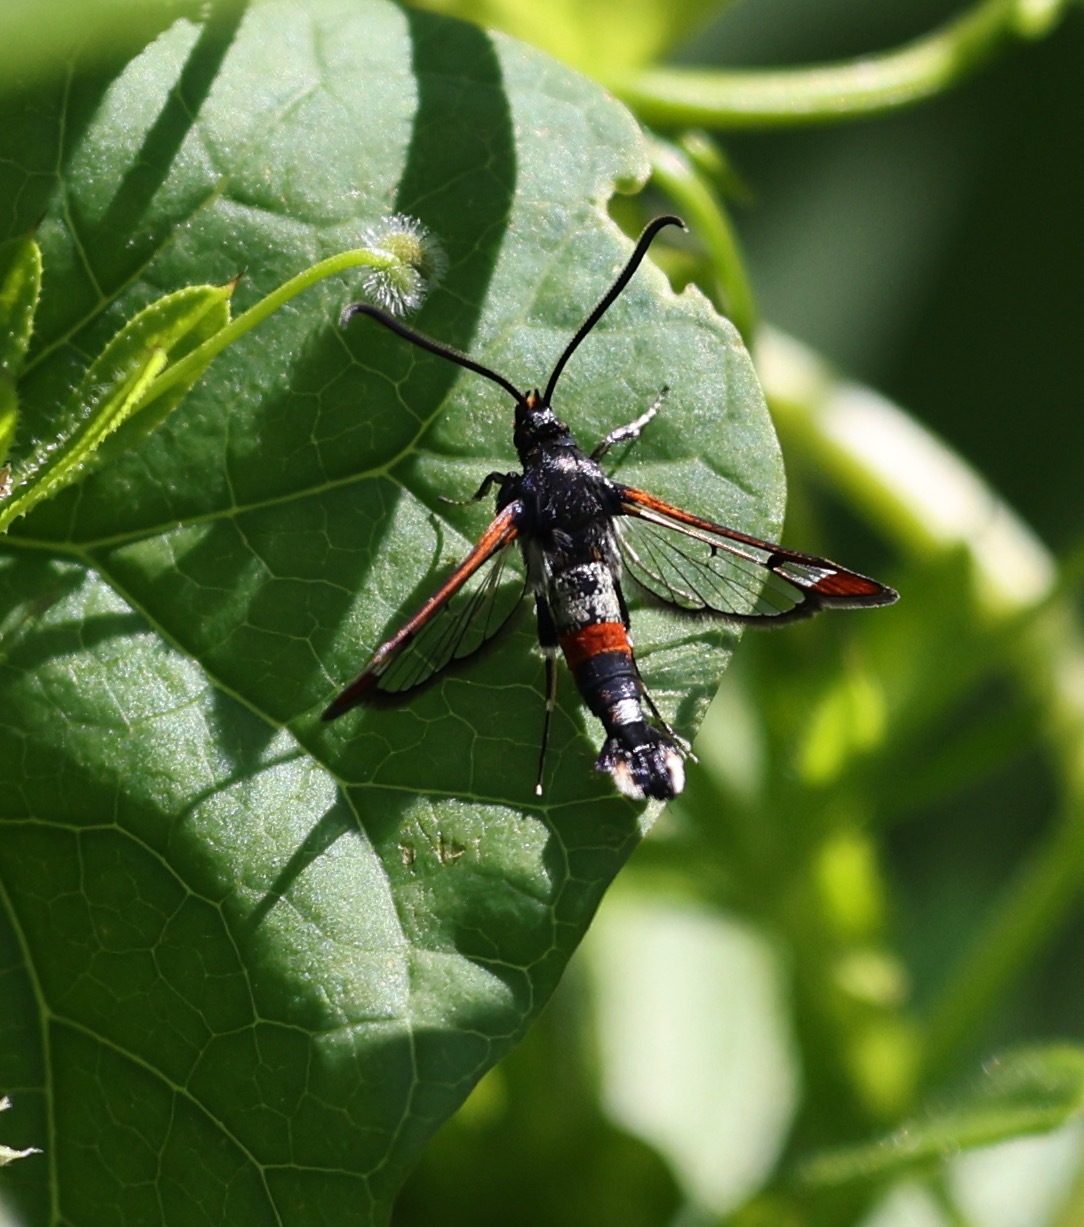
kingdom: Animalia
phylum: Arthropoda
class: Insecta
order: Lepidoptera
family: Sesiidae
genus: Synanthedon
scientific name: Synanthedon formicaeformis
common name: Red-tipped clearwing
